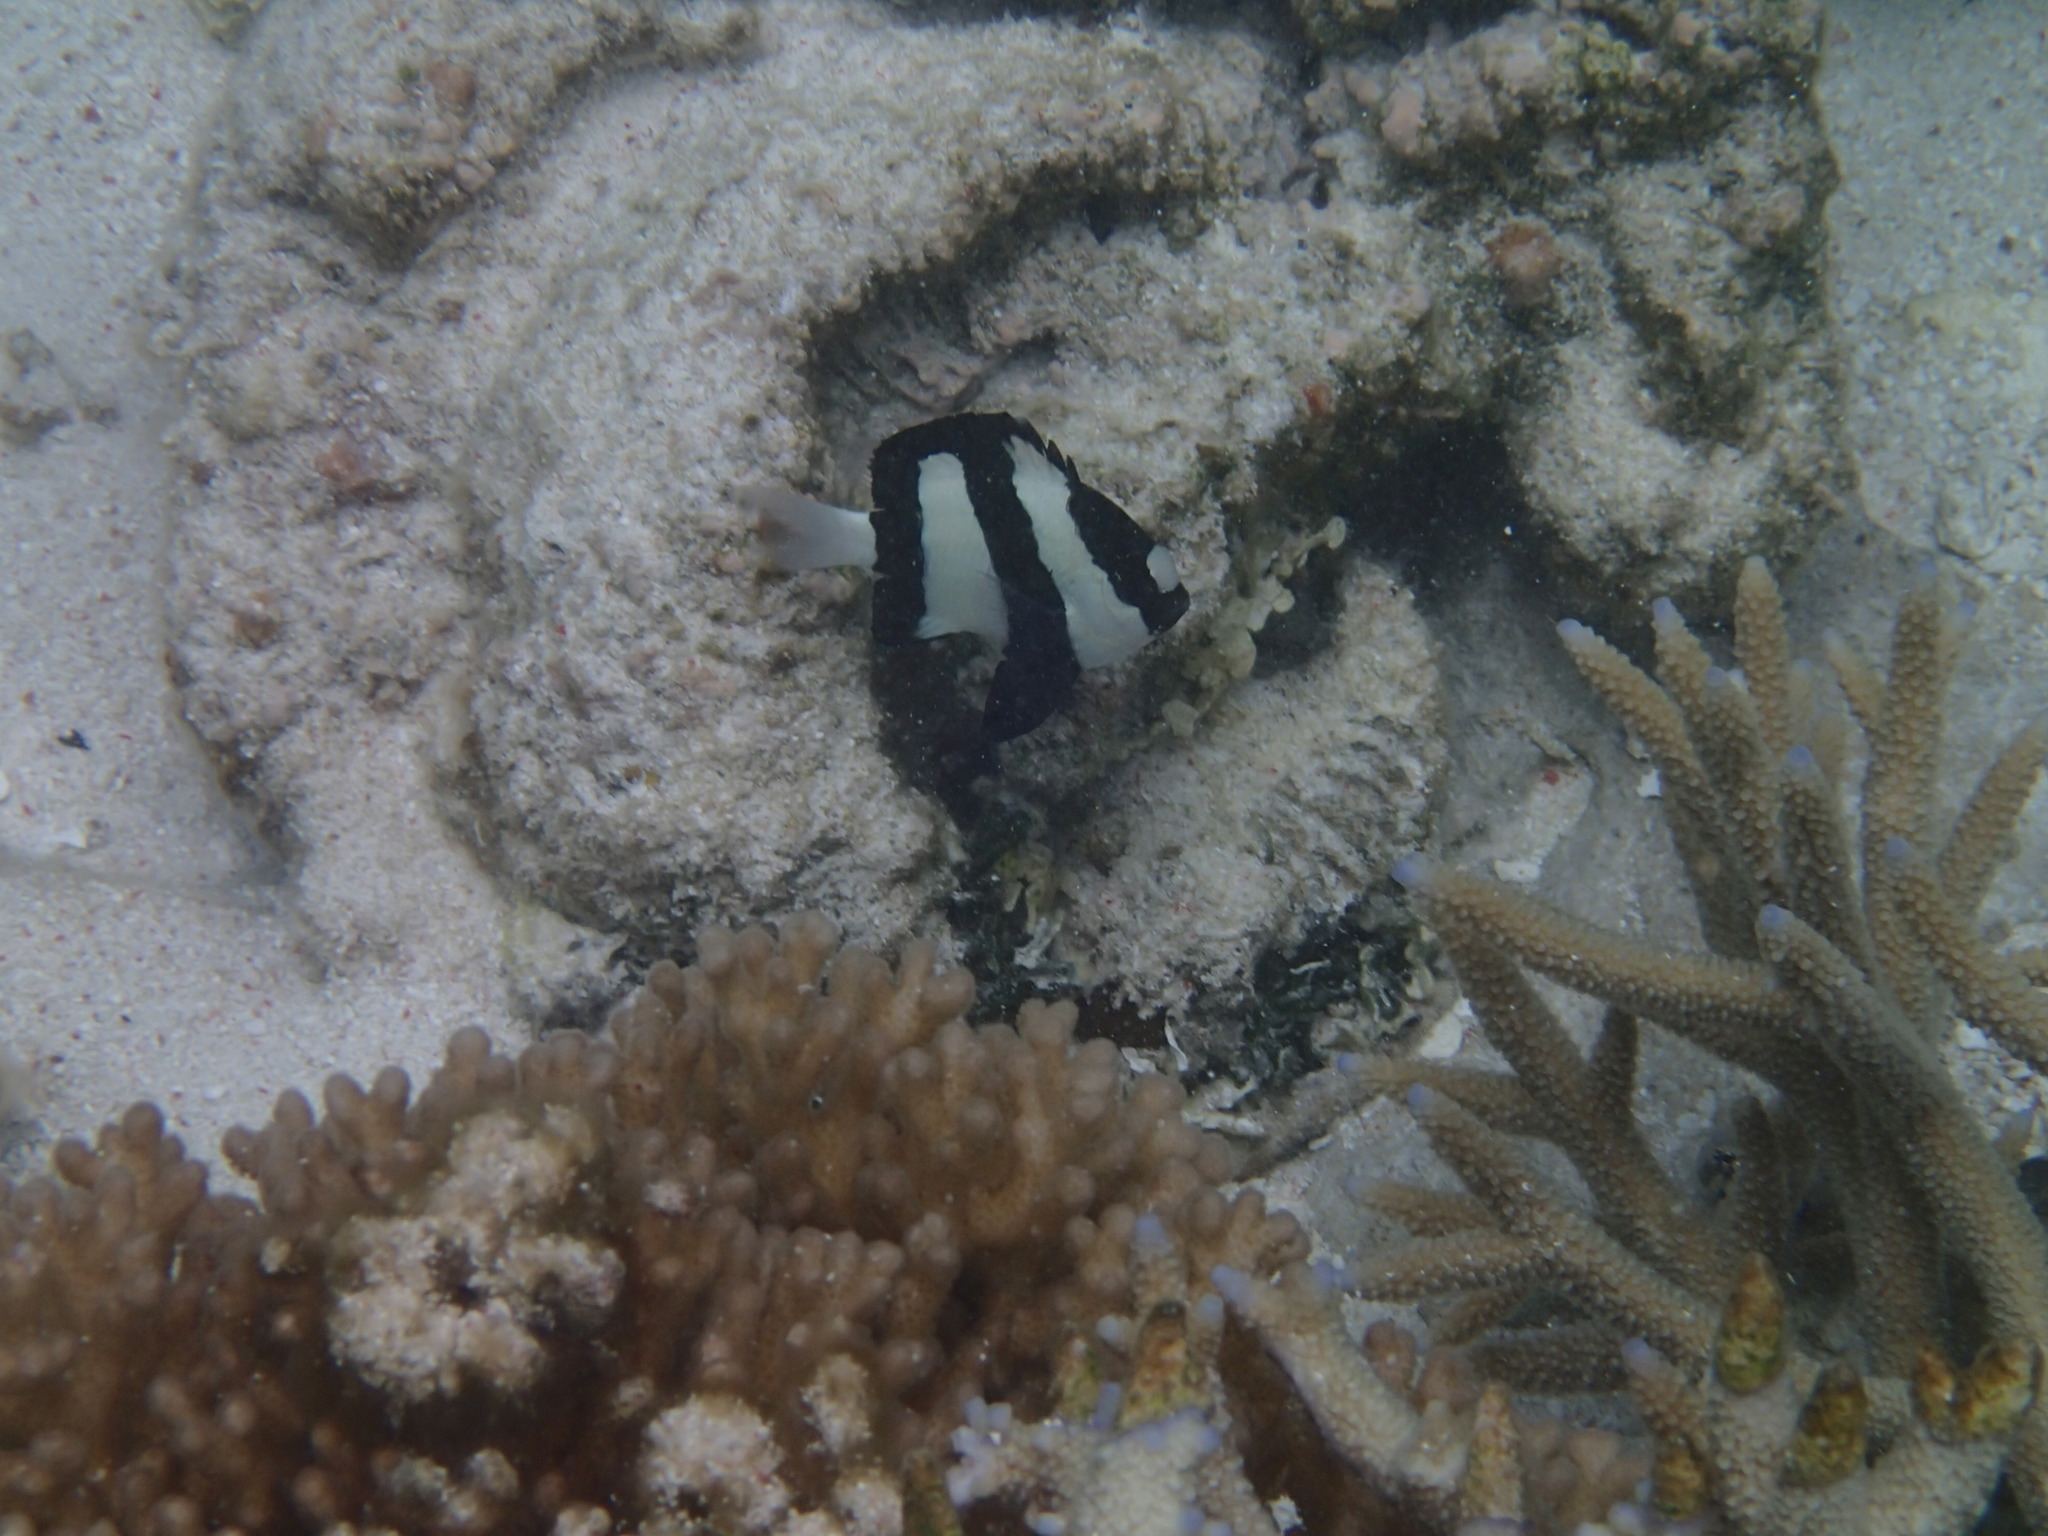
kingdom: Animalia
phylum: Chordata
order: Perciformes
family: Pomacentridae
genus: Dascyllus
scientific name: Dascyllus aruanus
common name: Humbug dascyllus
